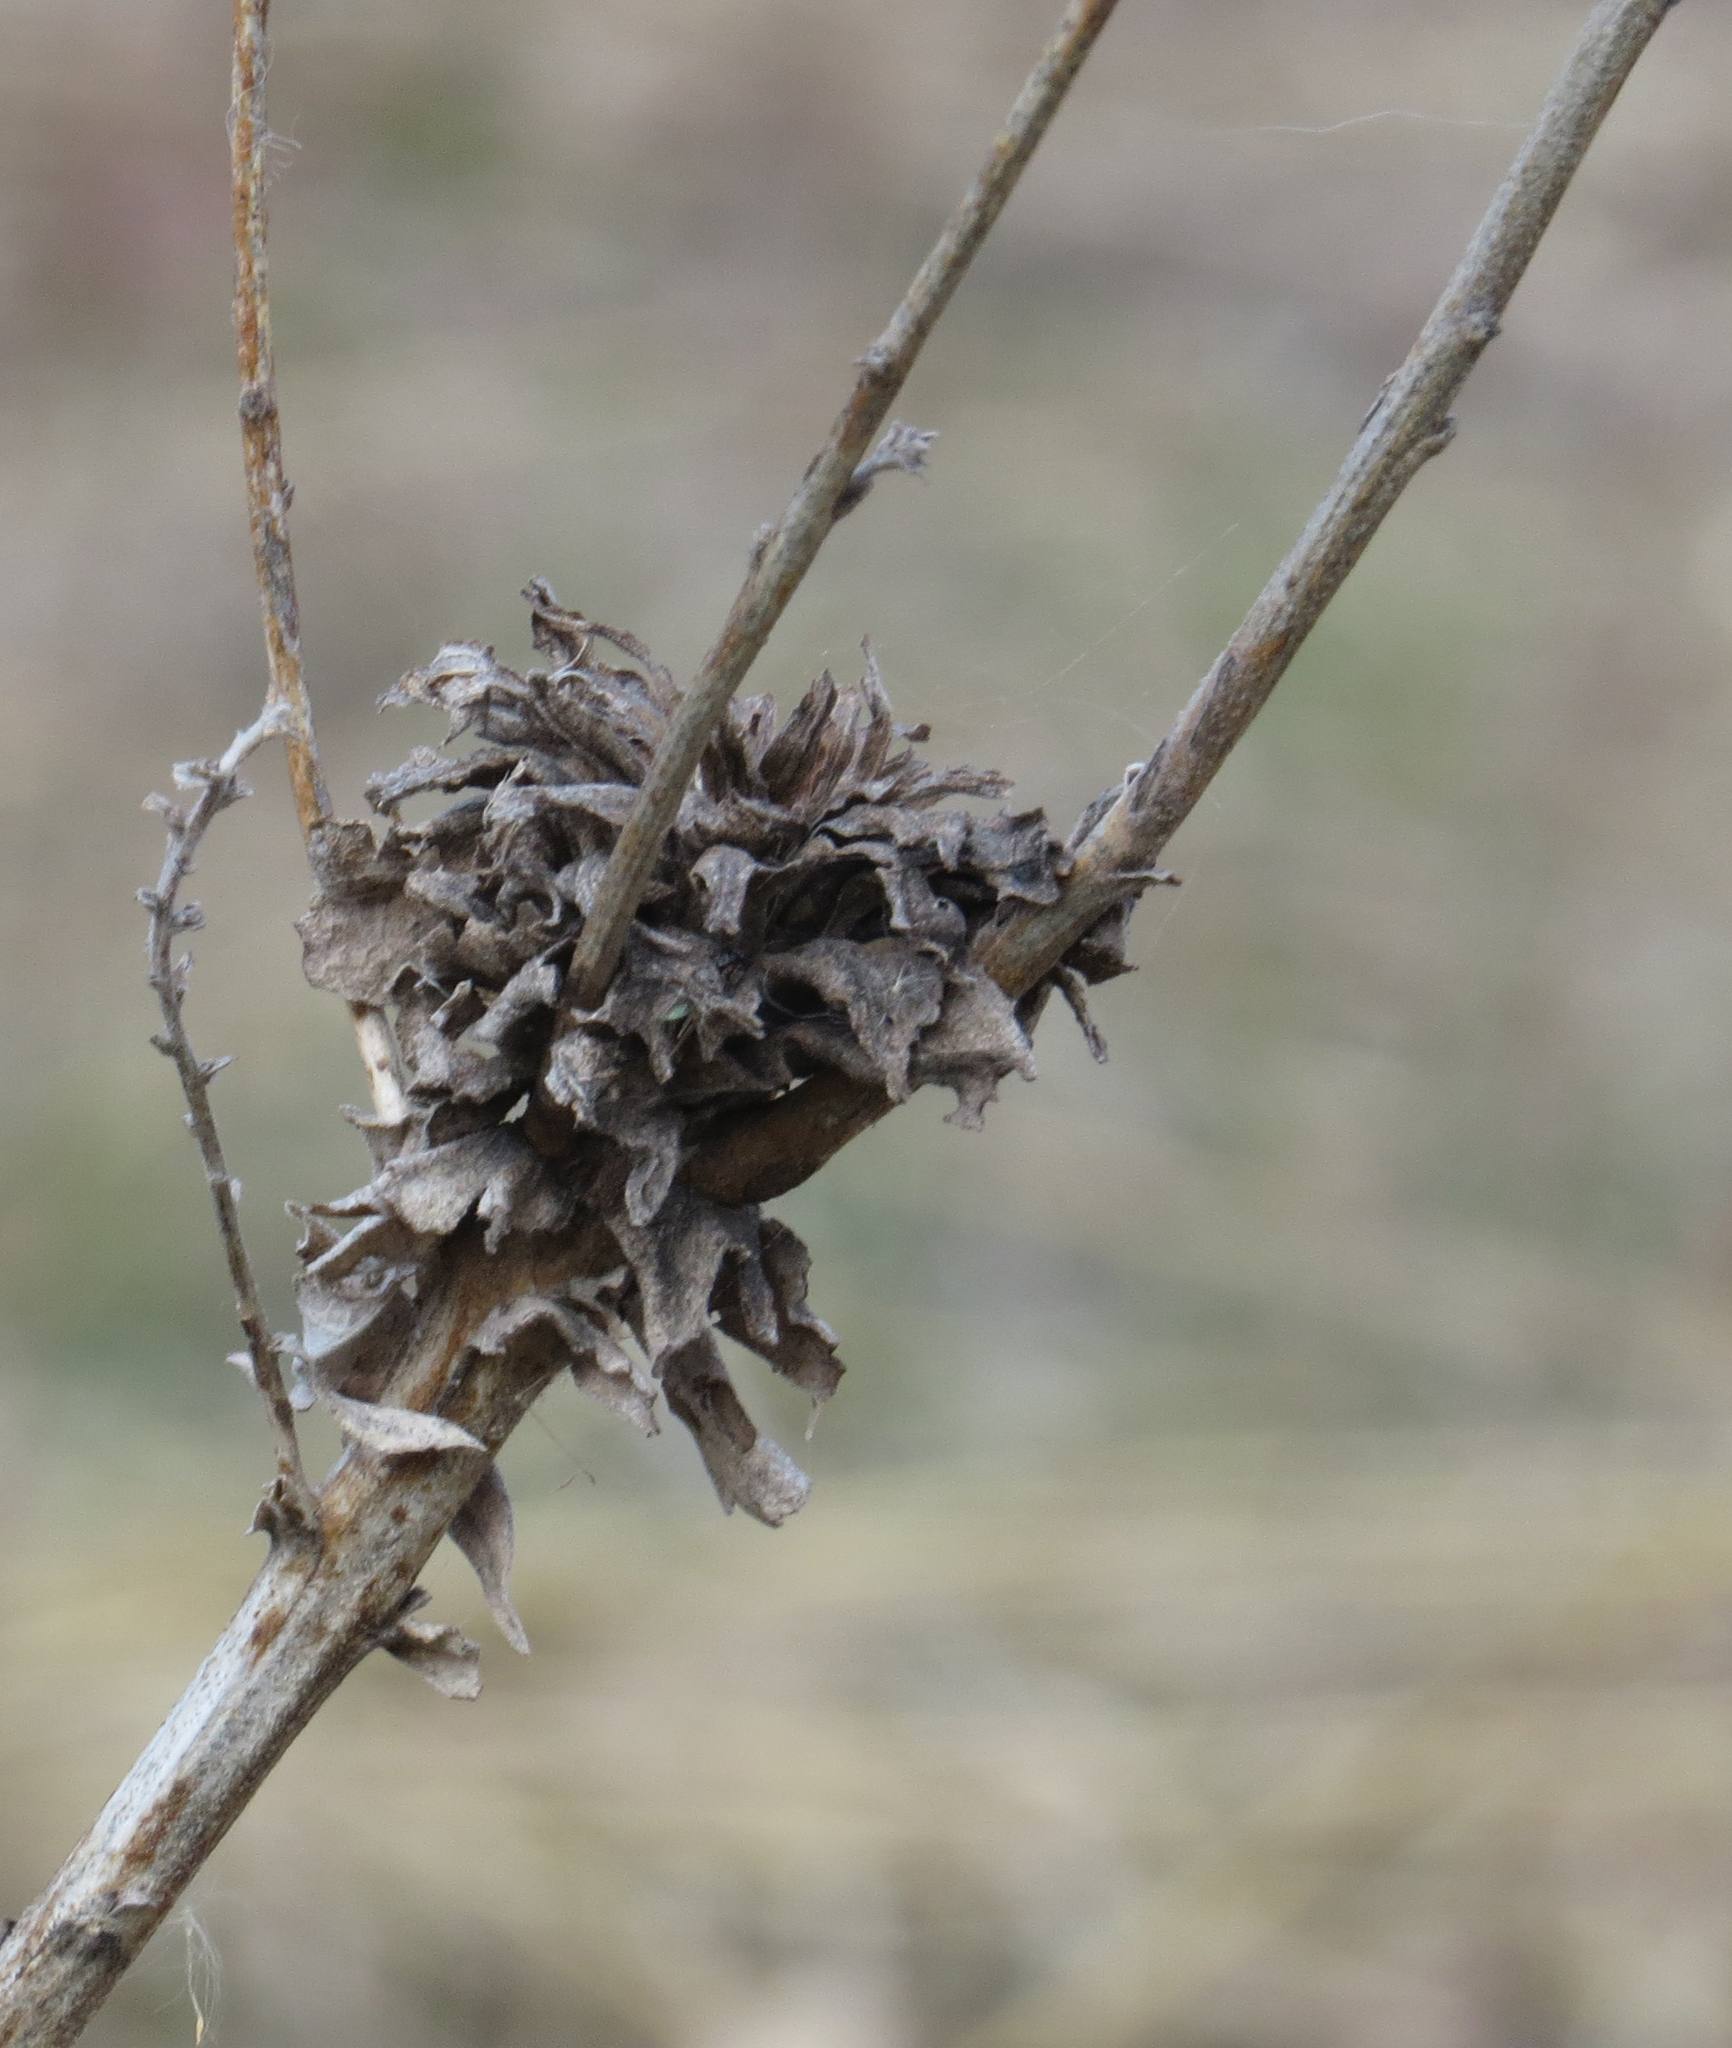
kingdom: Animalia
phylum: Arthropoda
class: Insecta
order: Diptera
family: Cecidomyiidae
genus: Rhopalomyia
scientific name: Rhopalomyia solidaginis
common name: Goldenrod bunch gall midge
